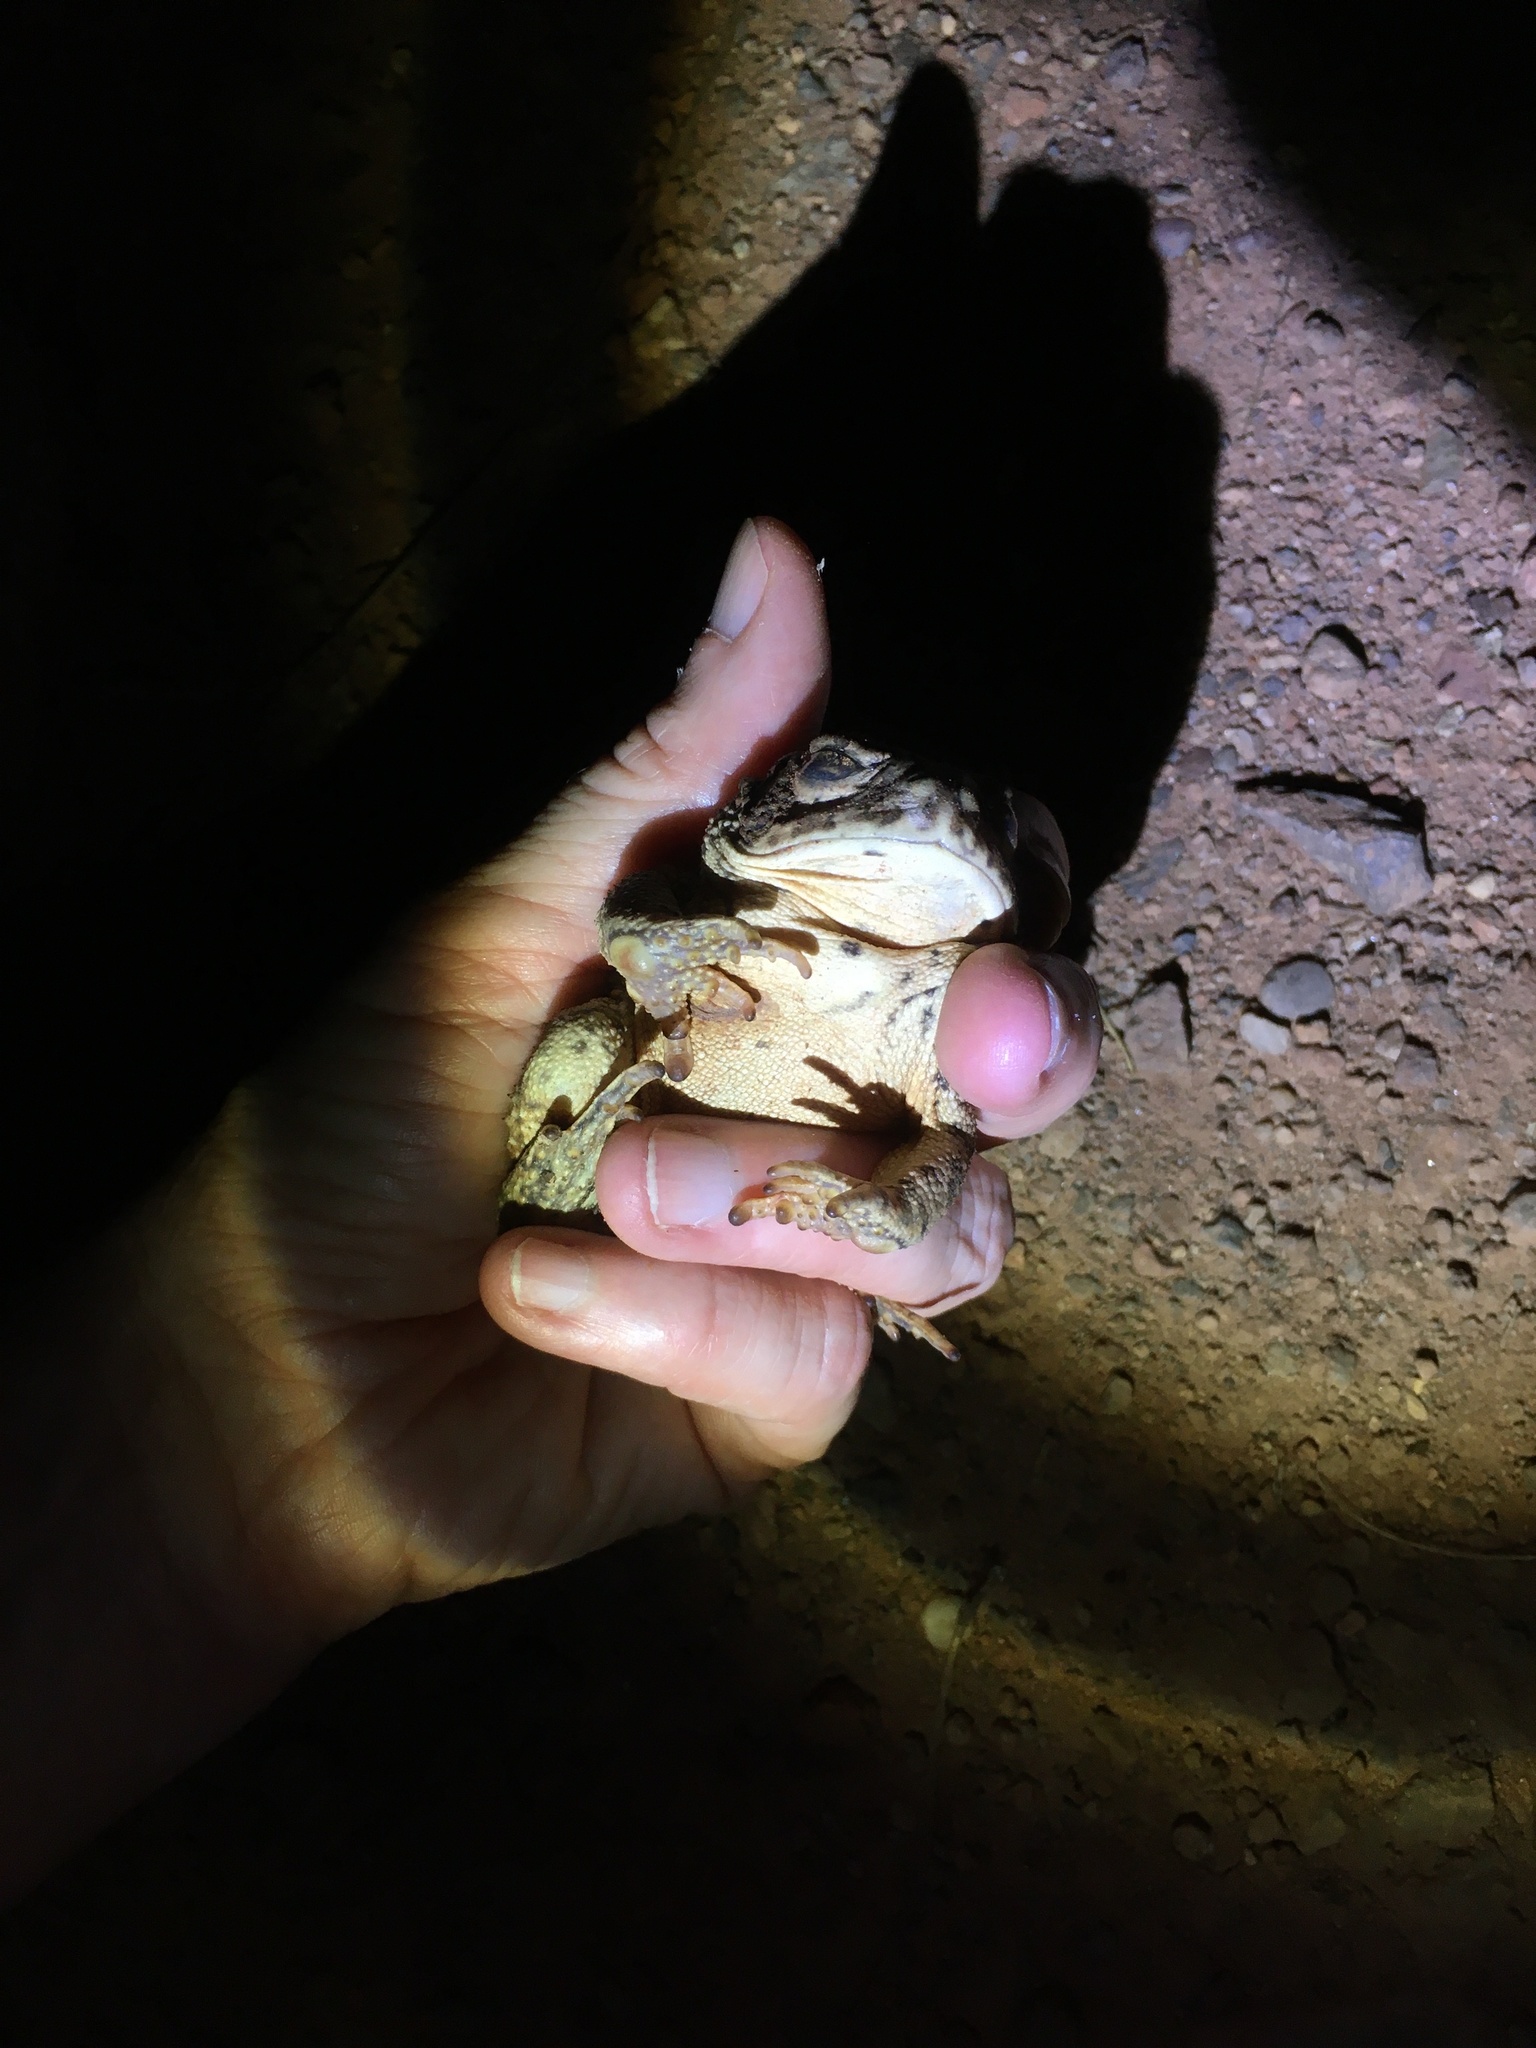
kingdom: Animalia
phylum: Chordata
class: Amphibia
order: Anura
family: Bufonidae
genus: Anaxyrus
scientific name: Anaxyrus woodhousii
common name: Woodhouse's toad
